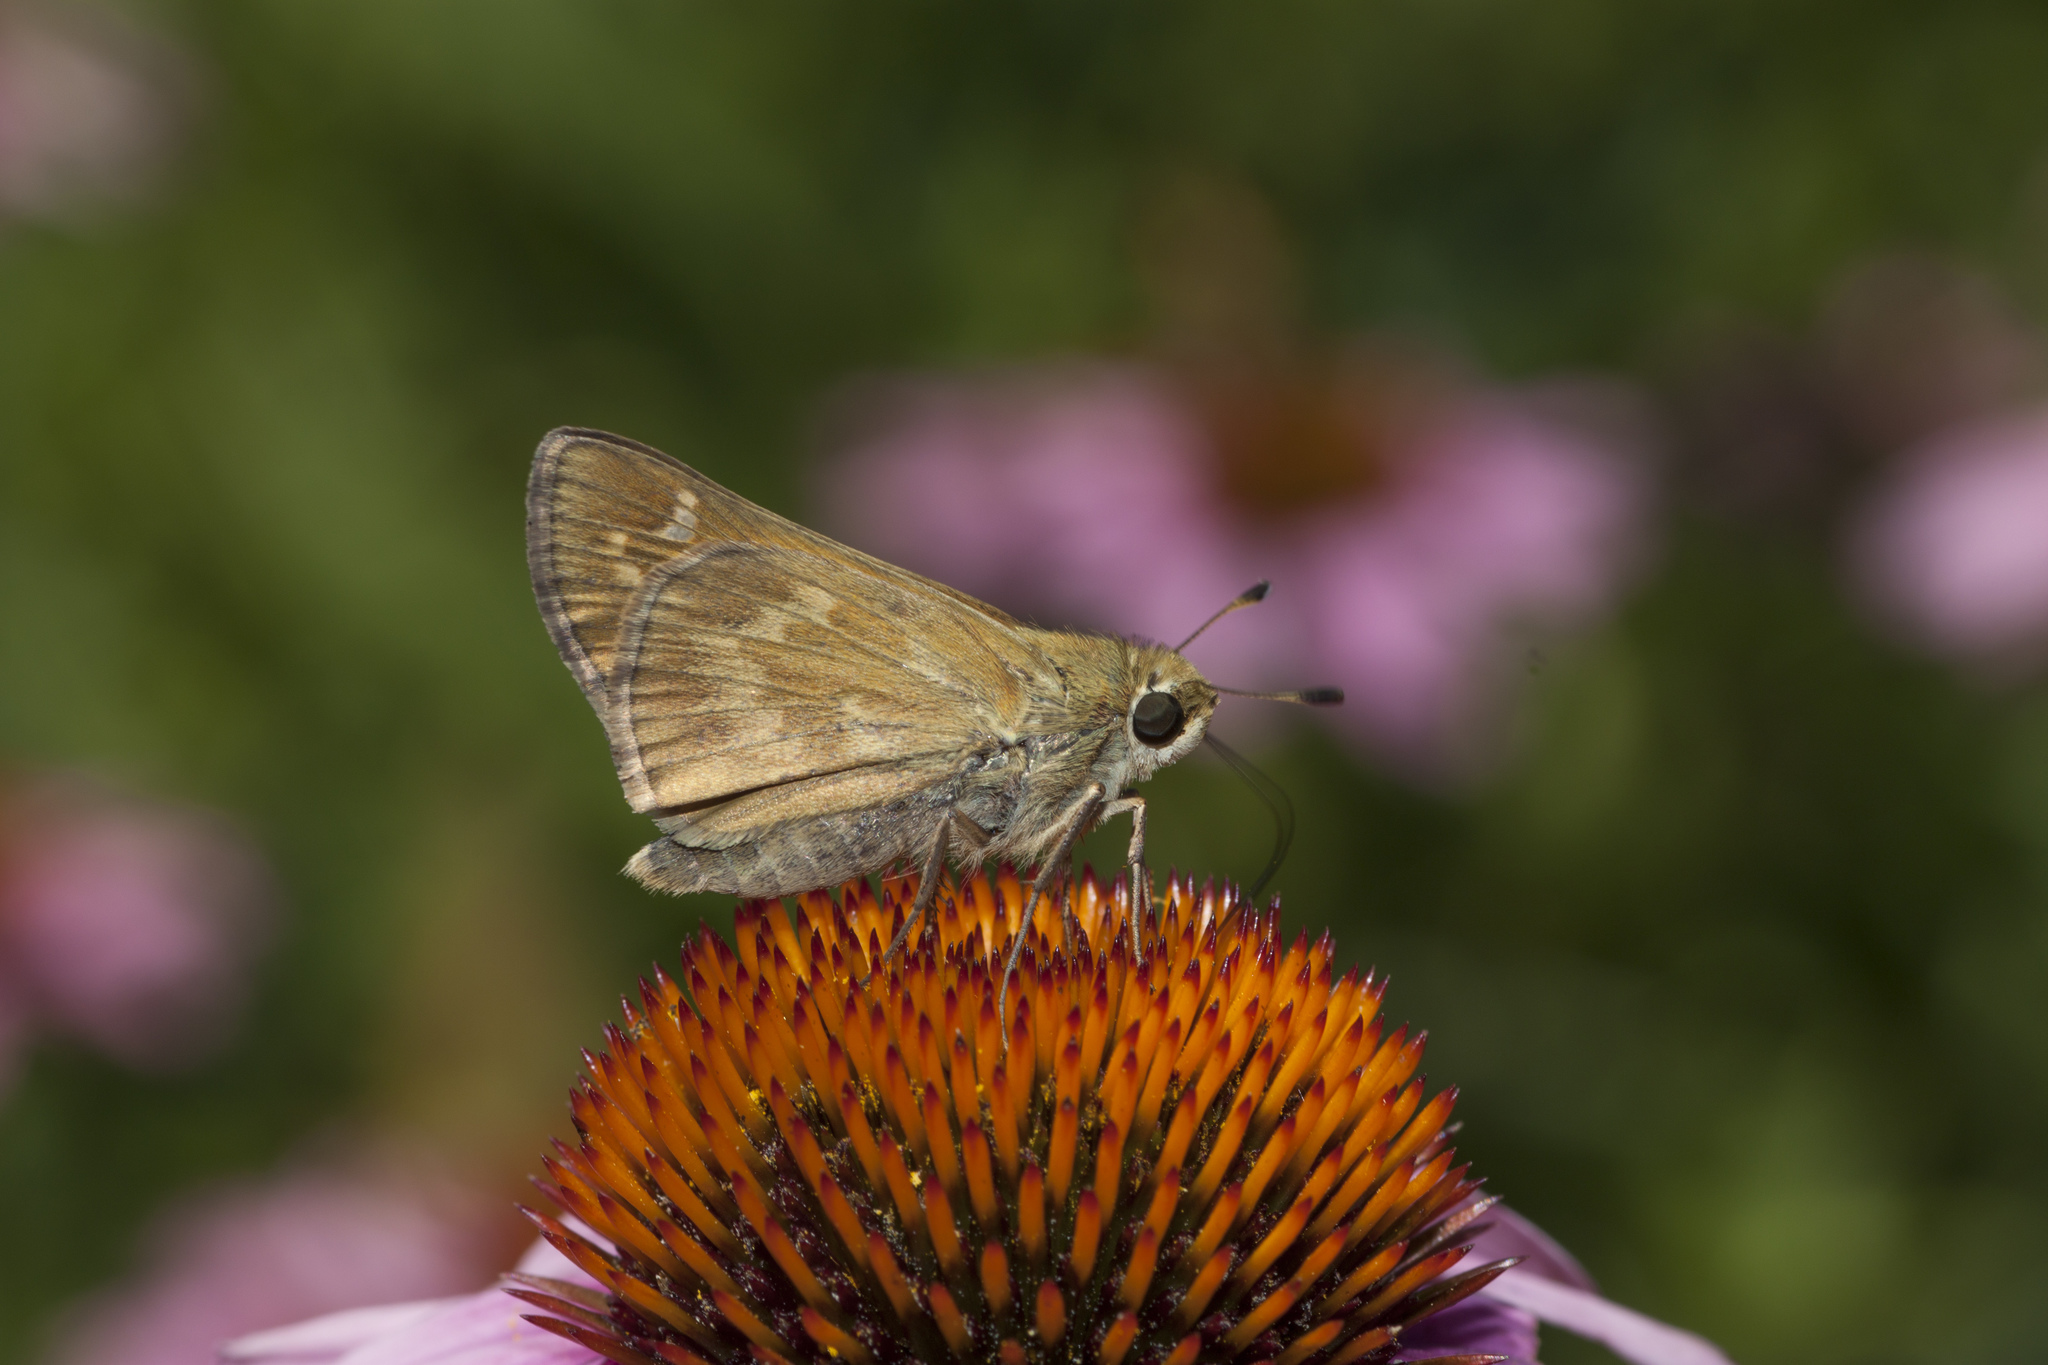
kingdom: Animalia
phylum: Arthropoda
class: Insecta
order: Lepidoptera
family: Hesperiidae
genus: Atalopedes
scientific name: Atalopedes
